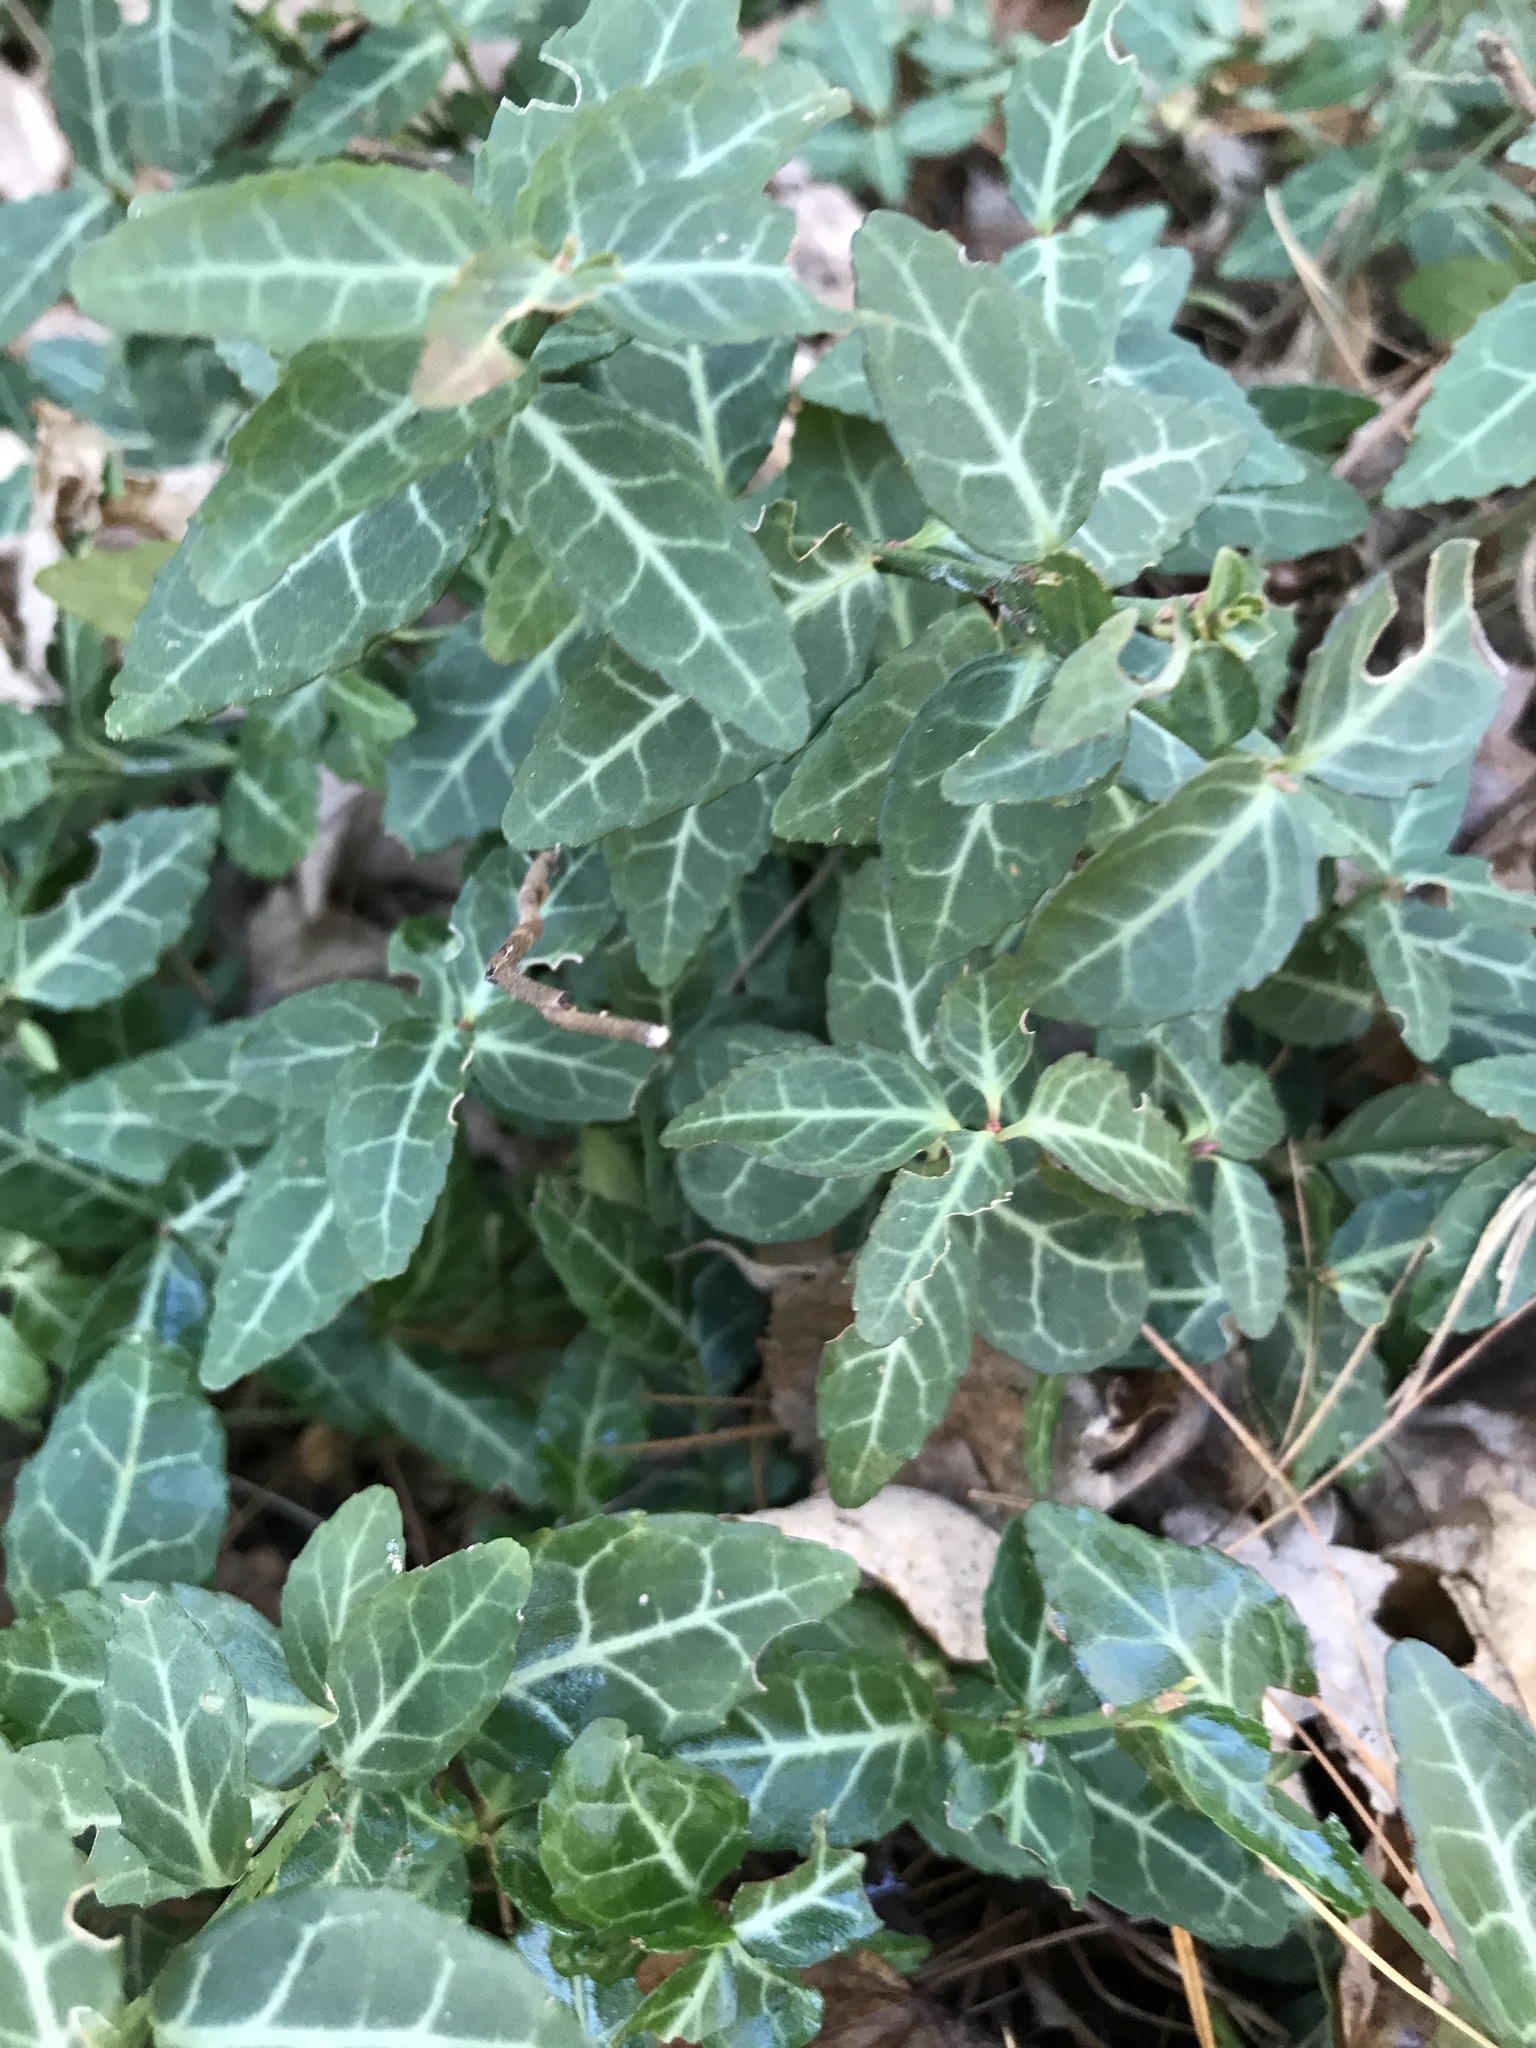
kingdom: Plantae
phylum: Tracheophyta
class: Magnoliopsida
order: Celastrales
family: Celastraceae
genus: Euonymus
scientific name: Euonymus fortunei
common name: Climbing euonymus
